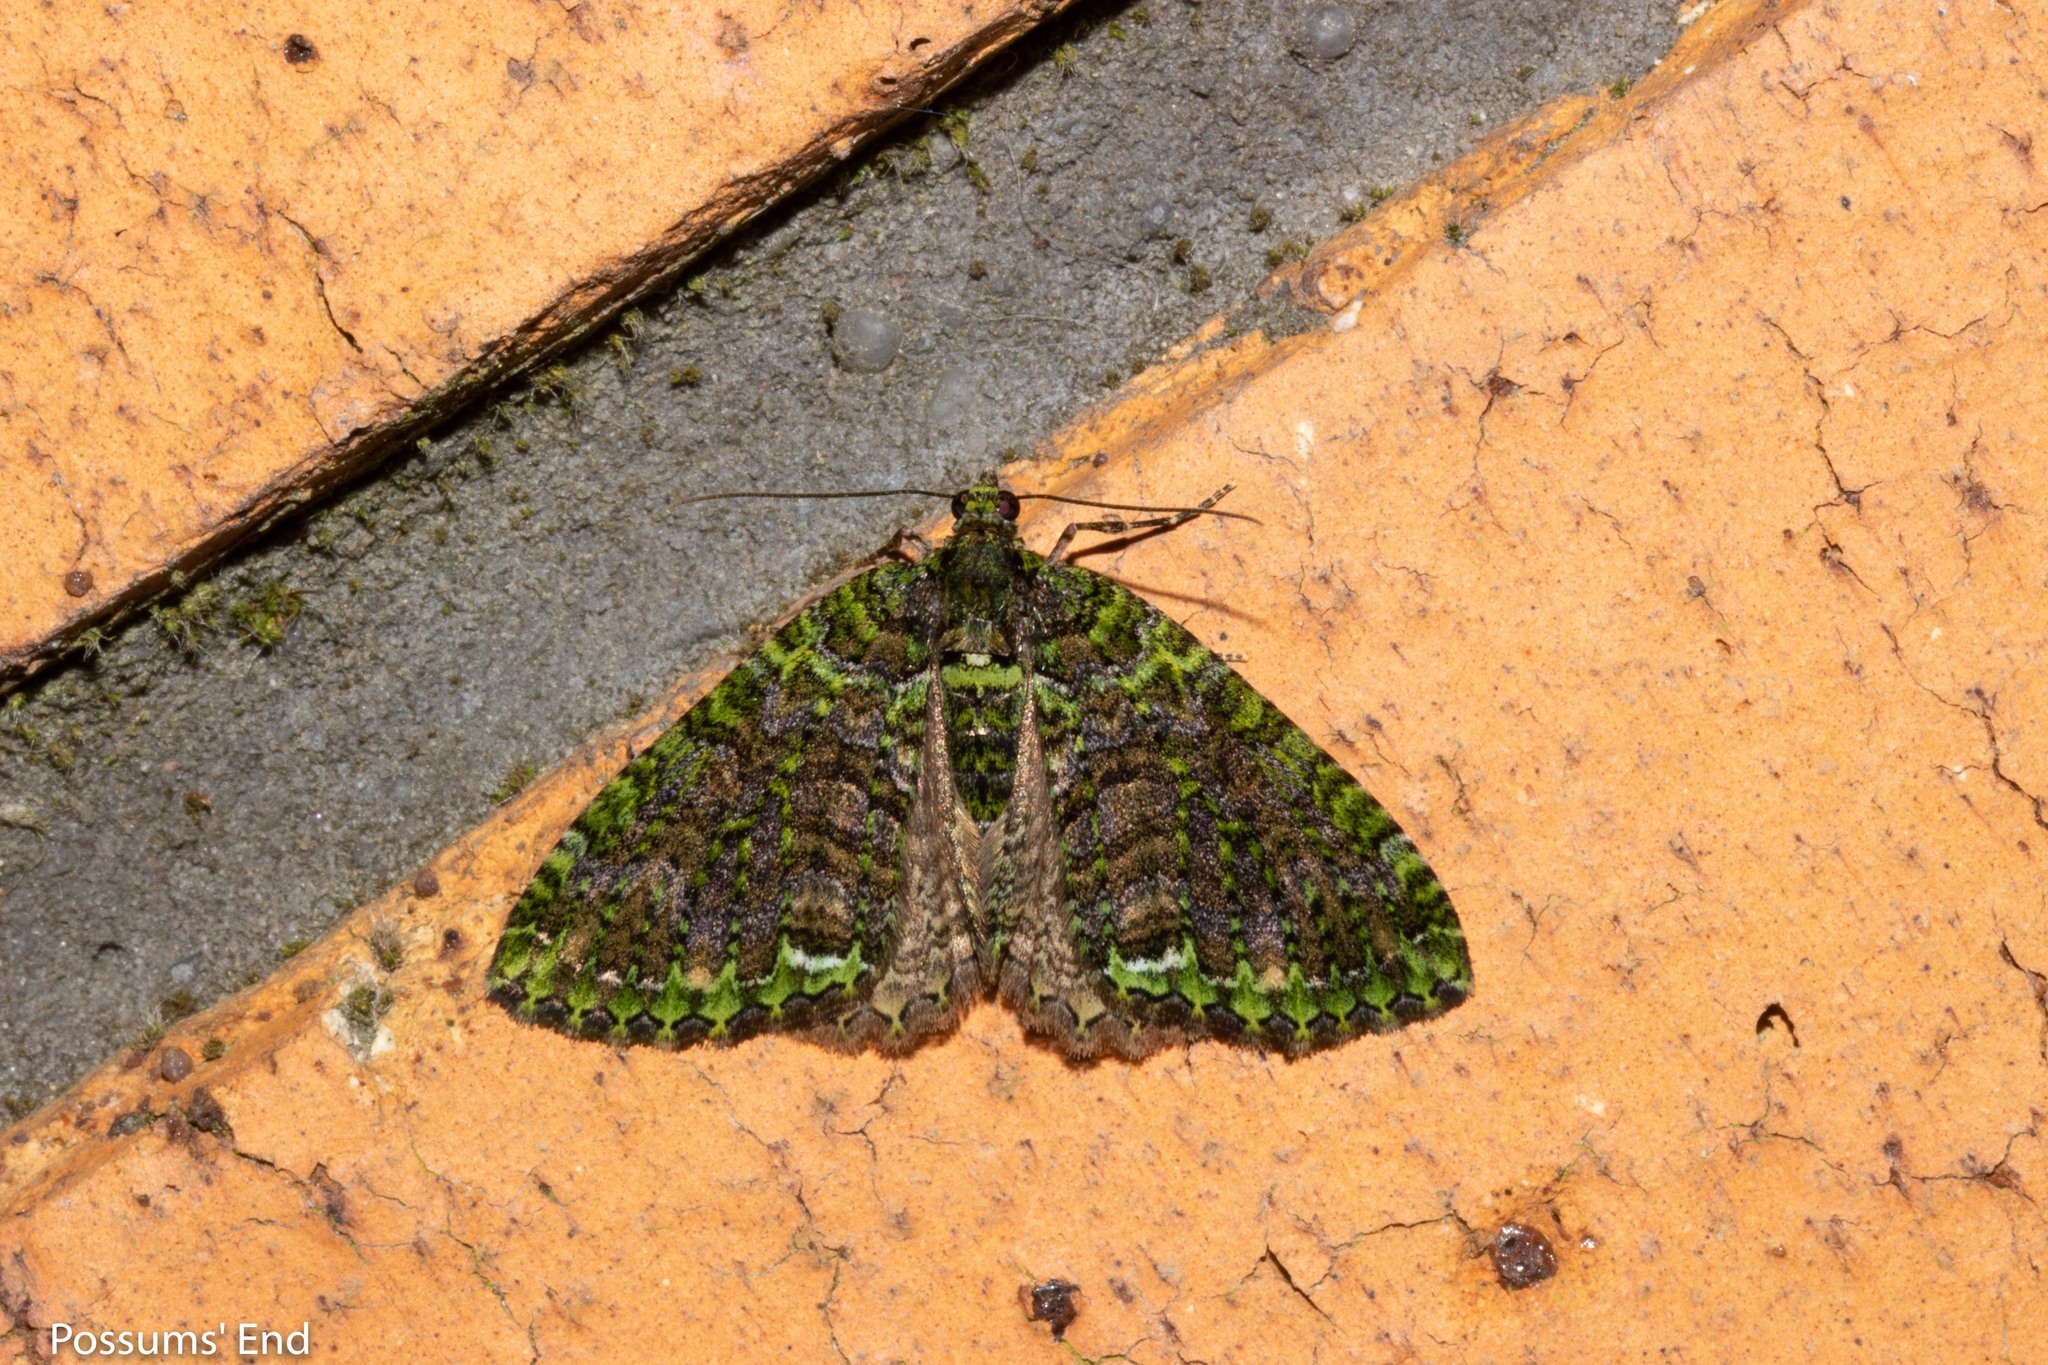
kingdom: Animalia
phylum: Arthropoda
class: Insecta
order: Lepidoptera
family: Geometridae
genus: Austrocidaria
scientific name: Austrocidaria similata
